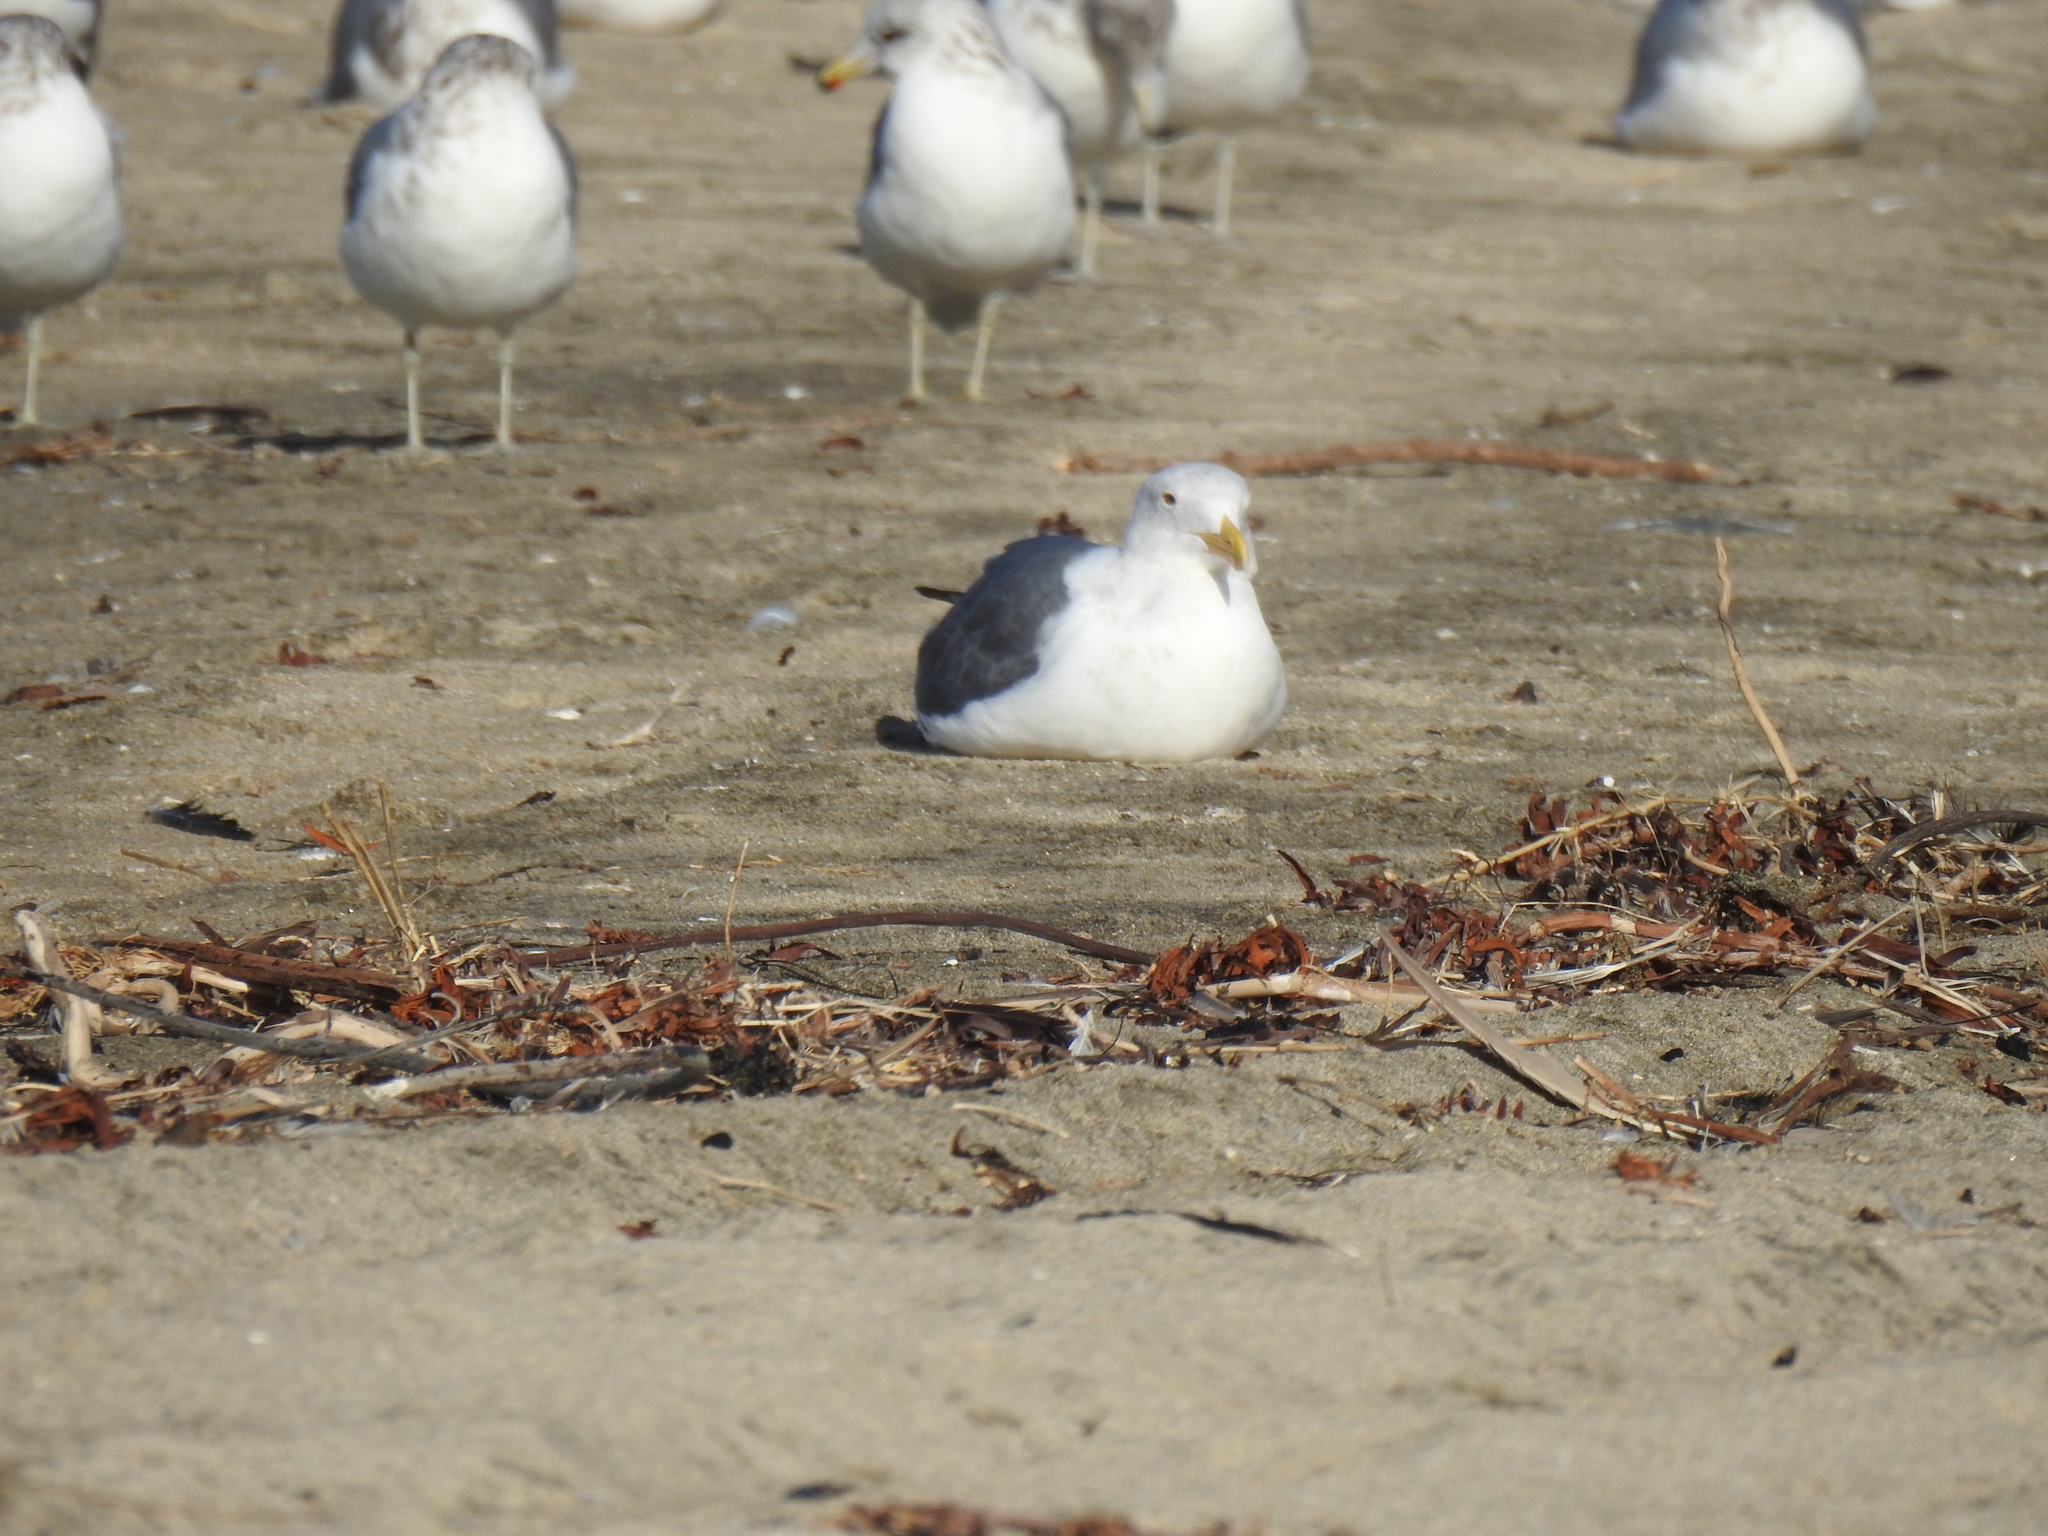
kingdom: Animalia
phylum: Chordata
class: Aves
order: Charadriiformes
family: Laridae
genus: Larus
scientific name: Larus occidentalis
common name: Western gull
